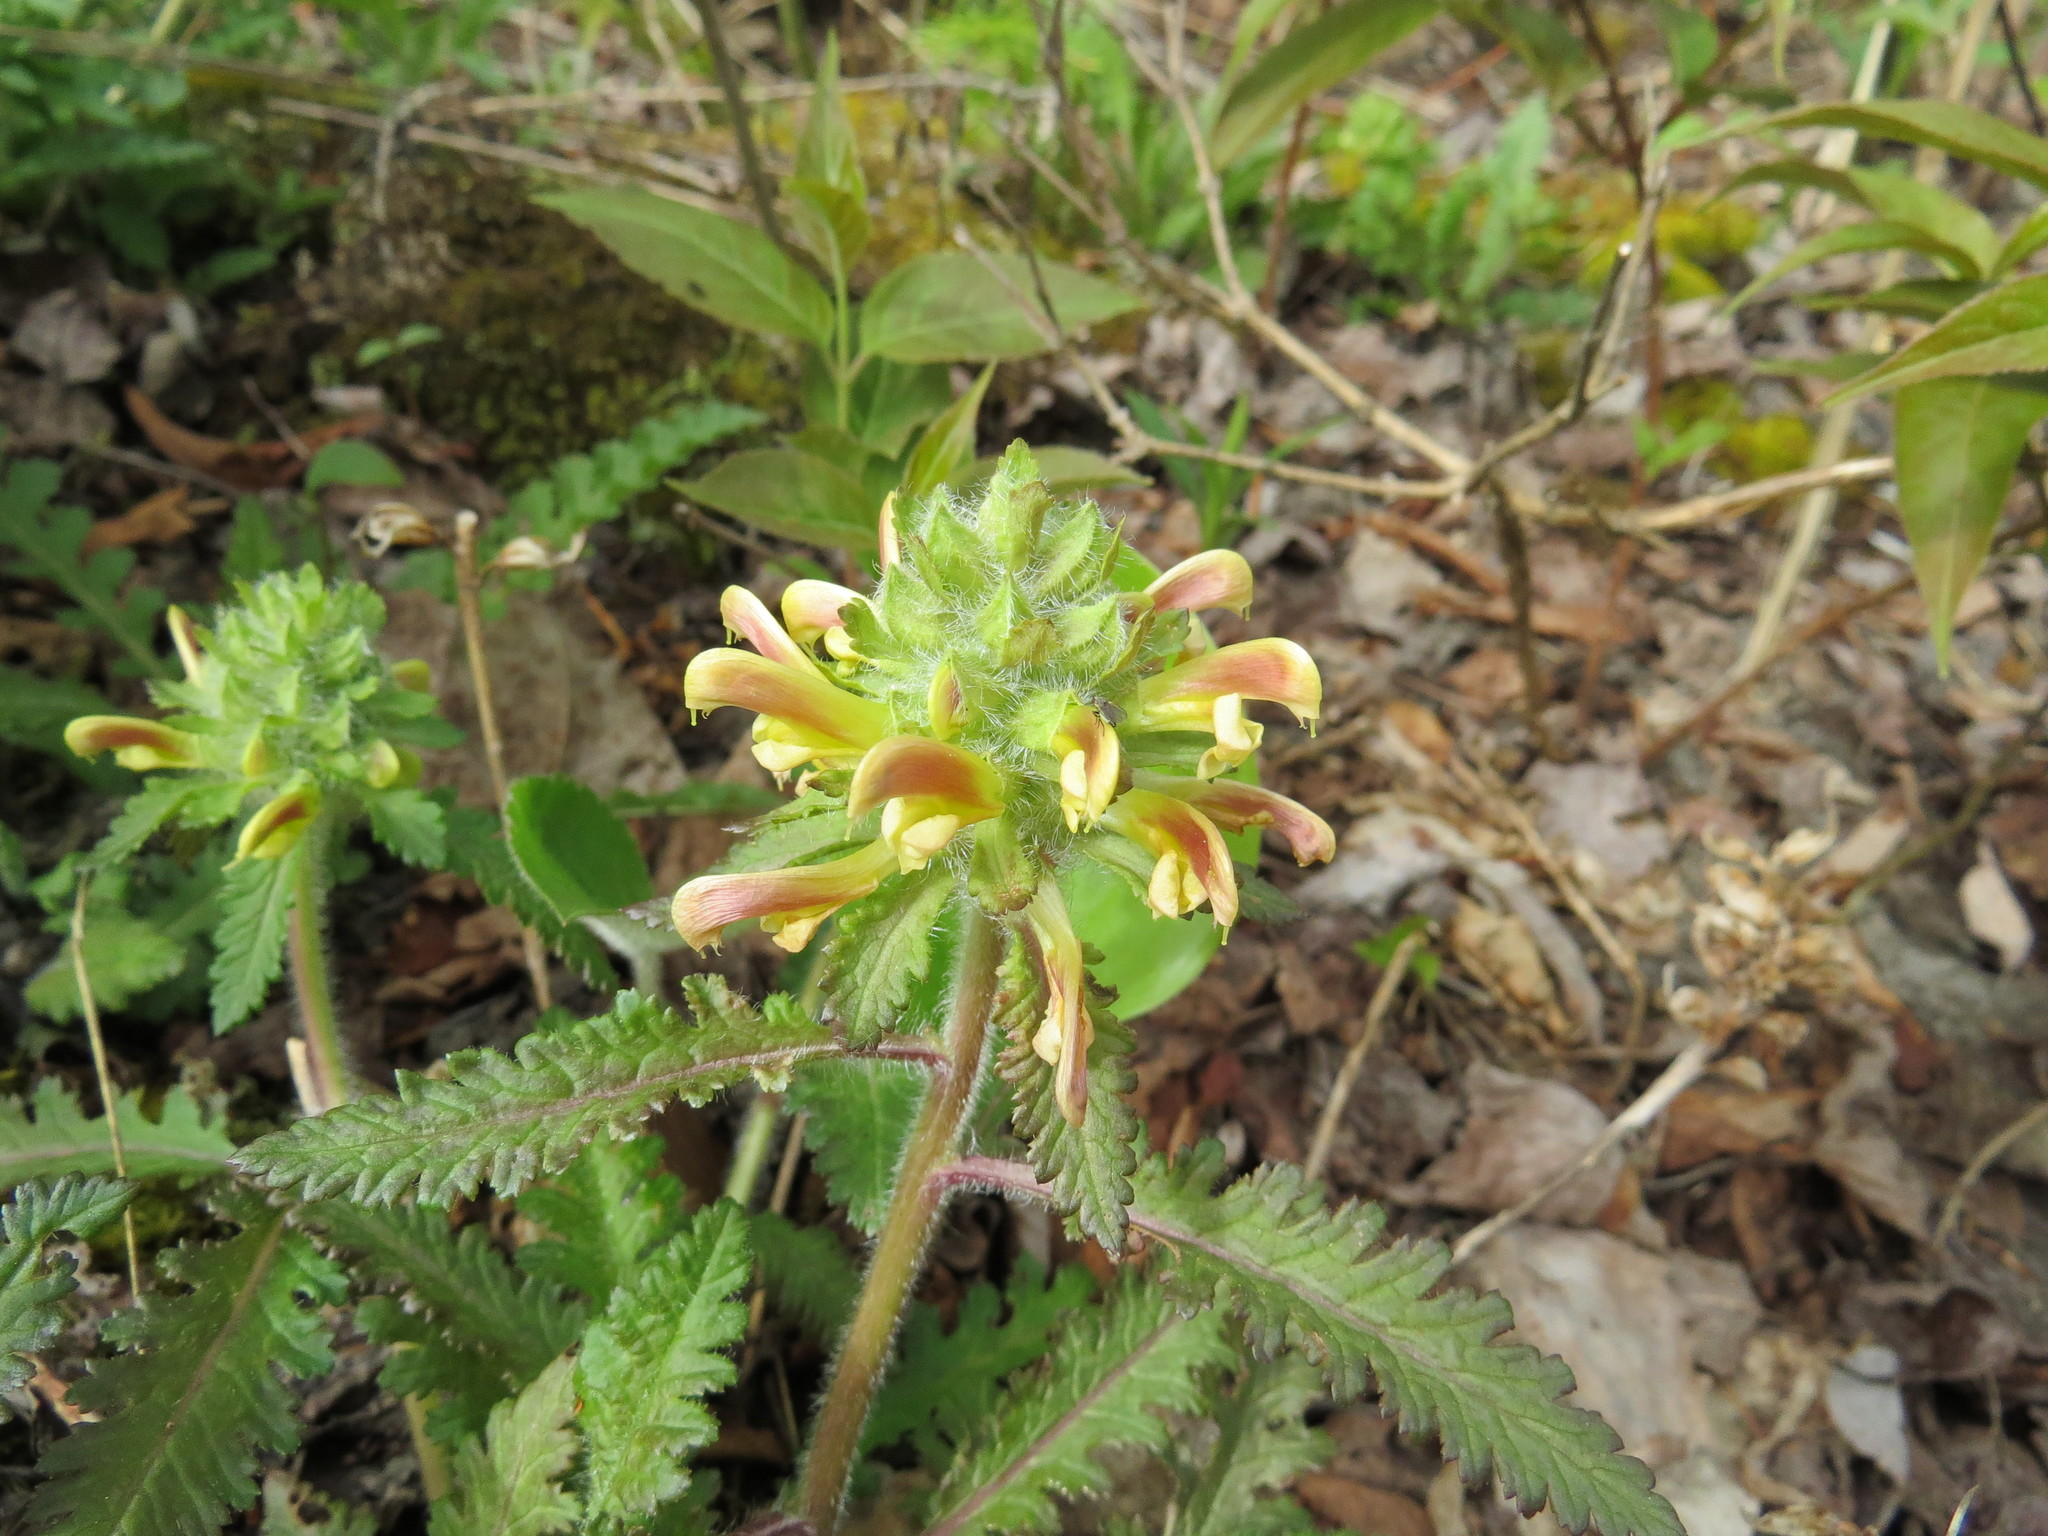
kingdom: Plantae
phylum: Tracheophyta
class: Magnoliopsida
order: Lamiales
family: Orobanchaceae
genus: Pedicularis
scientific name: Pedicularis canadensis
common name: Early lousewort
